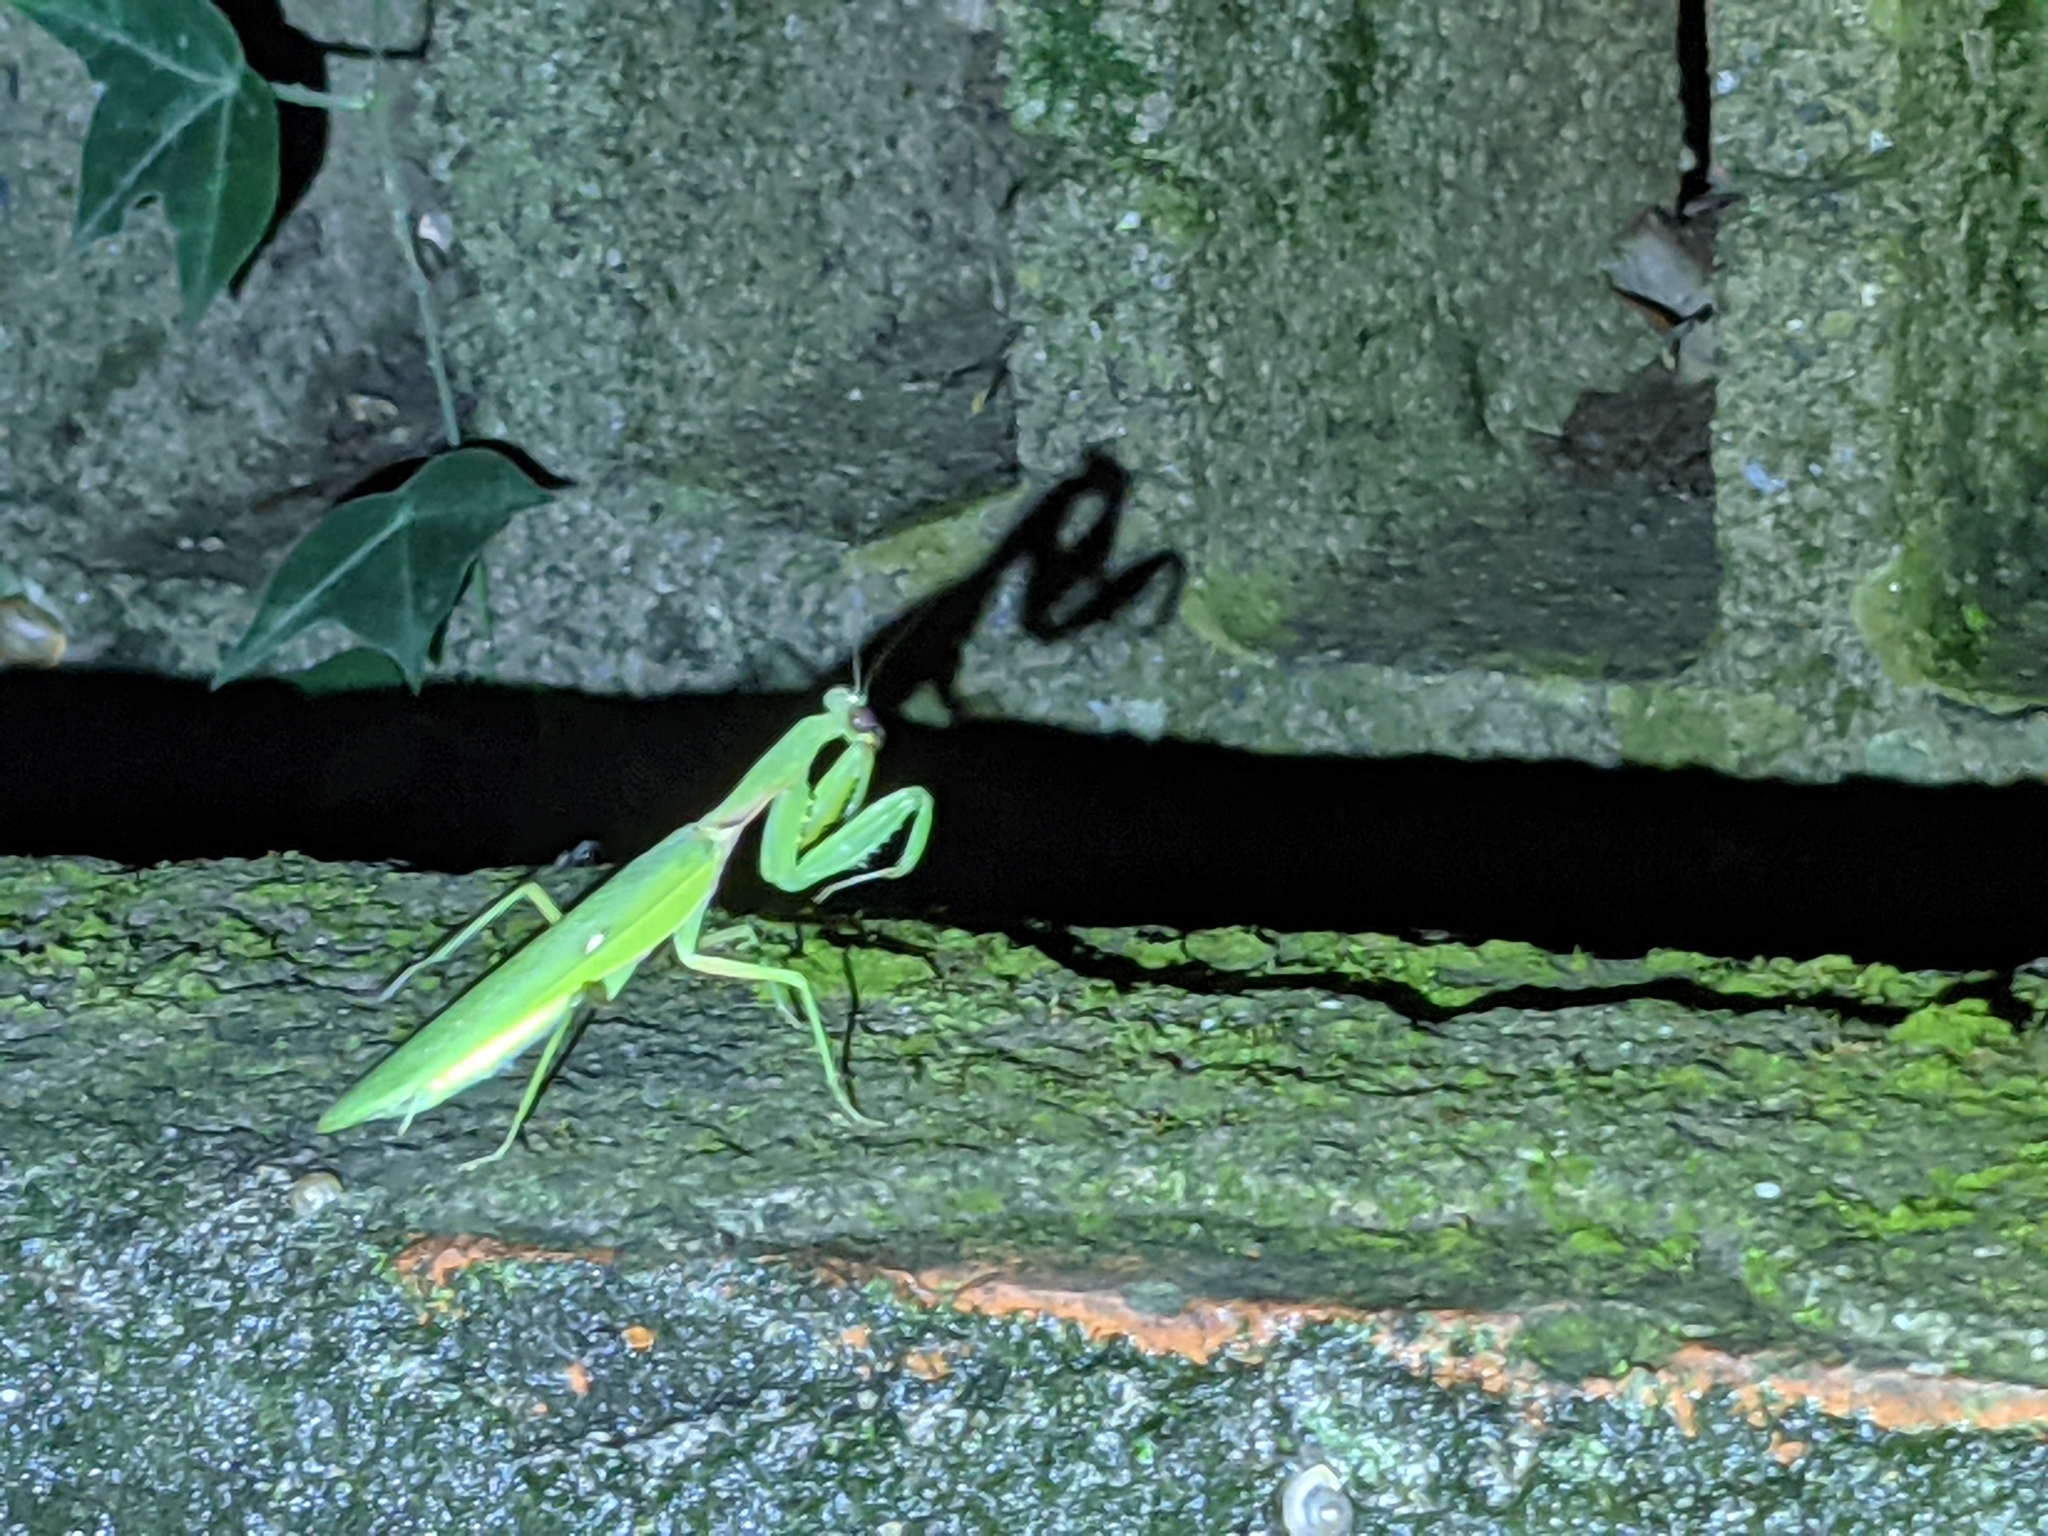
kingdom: Animalia
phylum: Arthropoda
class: Insecta
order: Mantodea
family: Mantidae
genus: Hierodula
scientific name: Hierodula patellifera
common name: Asian mantis
